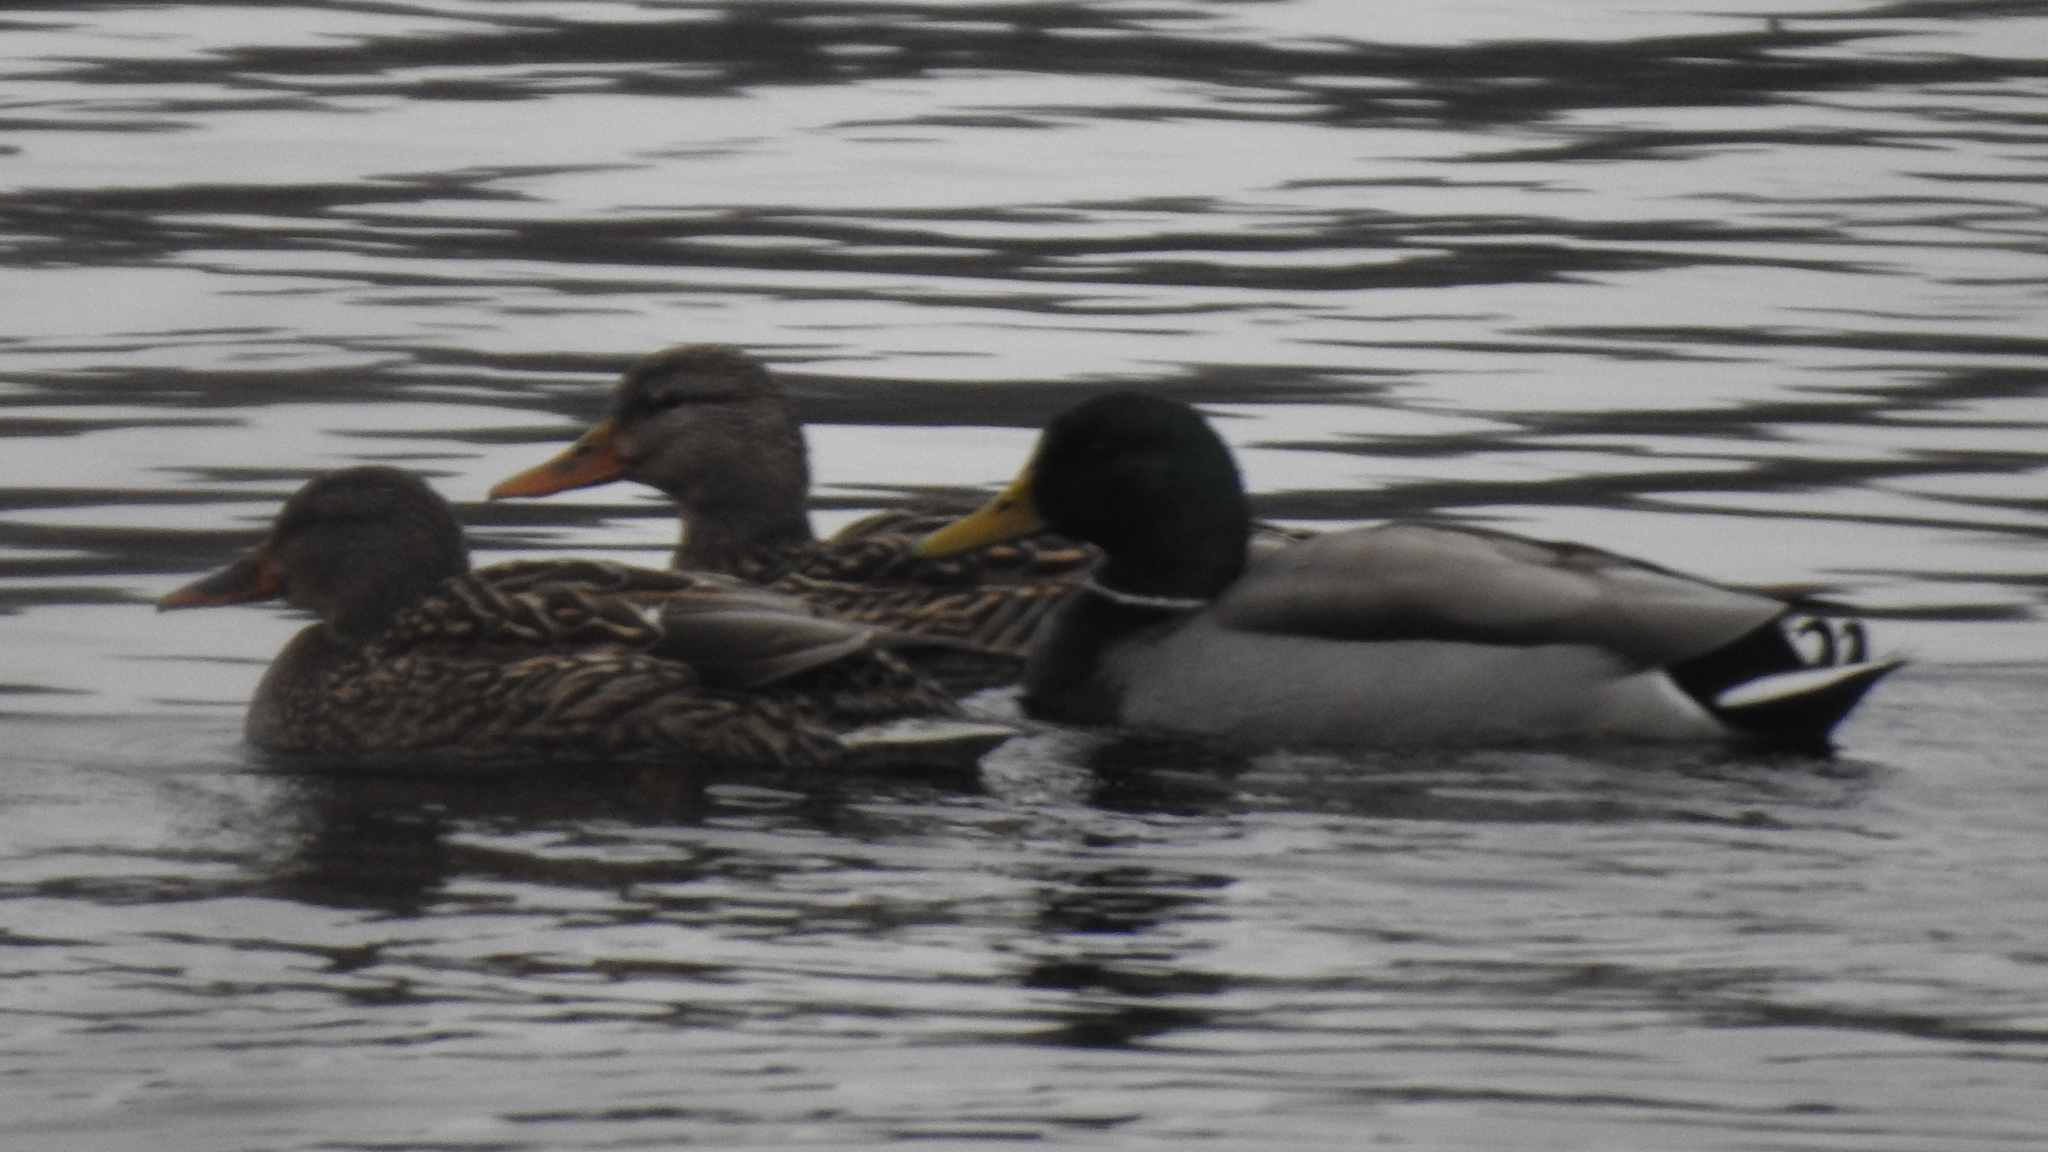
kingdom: Animalia
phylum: Chordata
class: Aves
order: Anseriformes
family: Anatidae
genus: Anas
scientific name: Anas platyrhynchos
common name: Mallard
